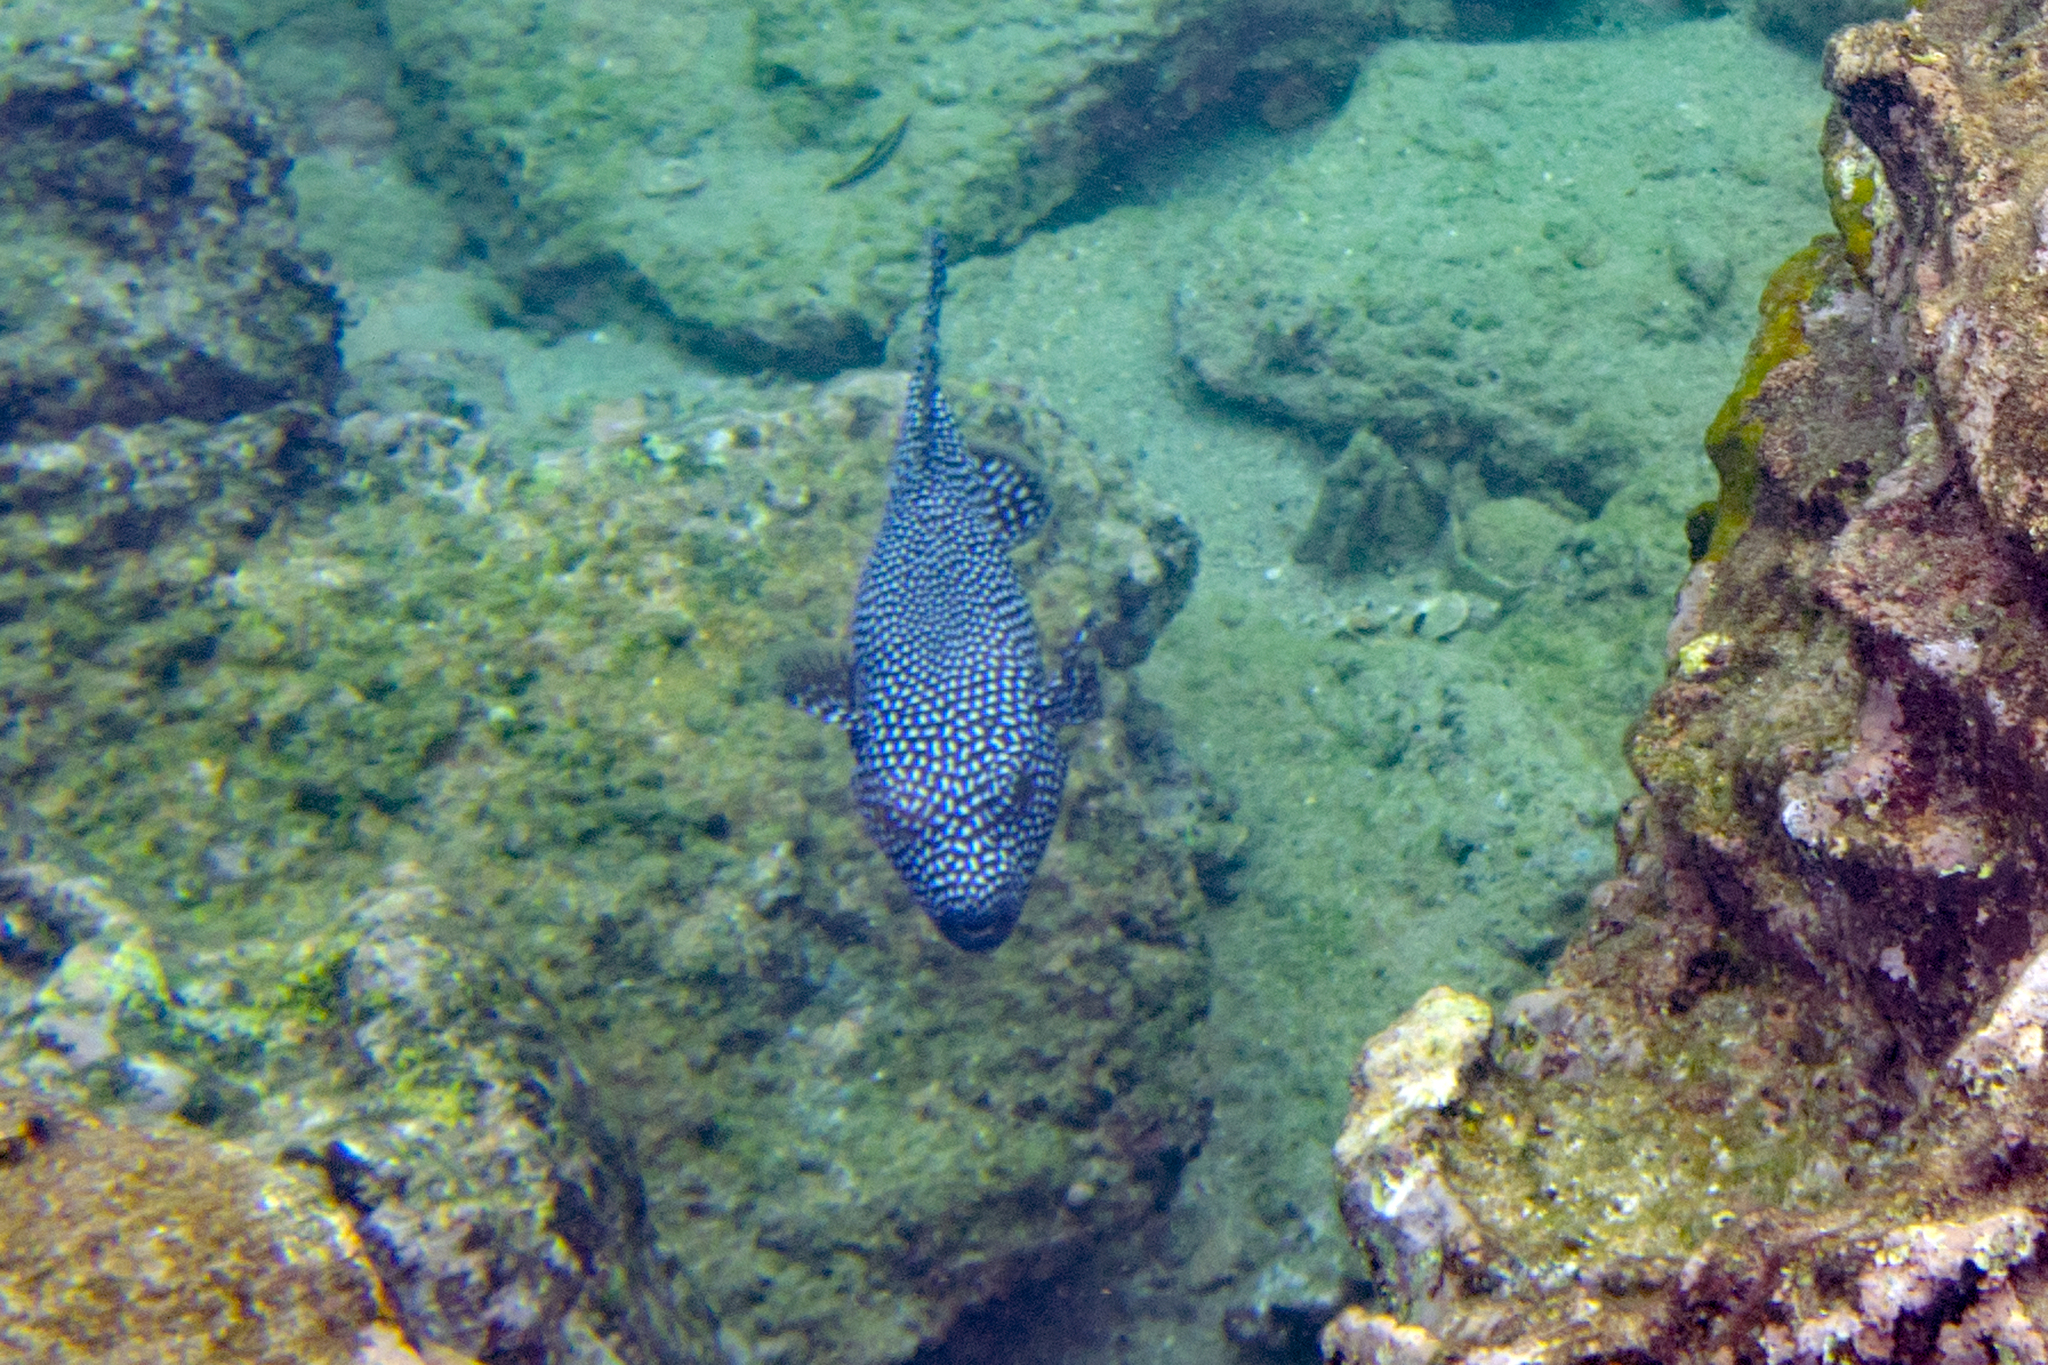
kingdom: Animalia
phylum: Chordata
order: Tetraodontiformes
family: Tetraodontidae
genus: Arothron
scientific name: Arothron meleagris
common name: Guinea-fowl pufferfish
